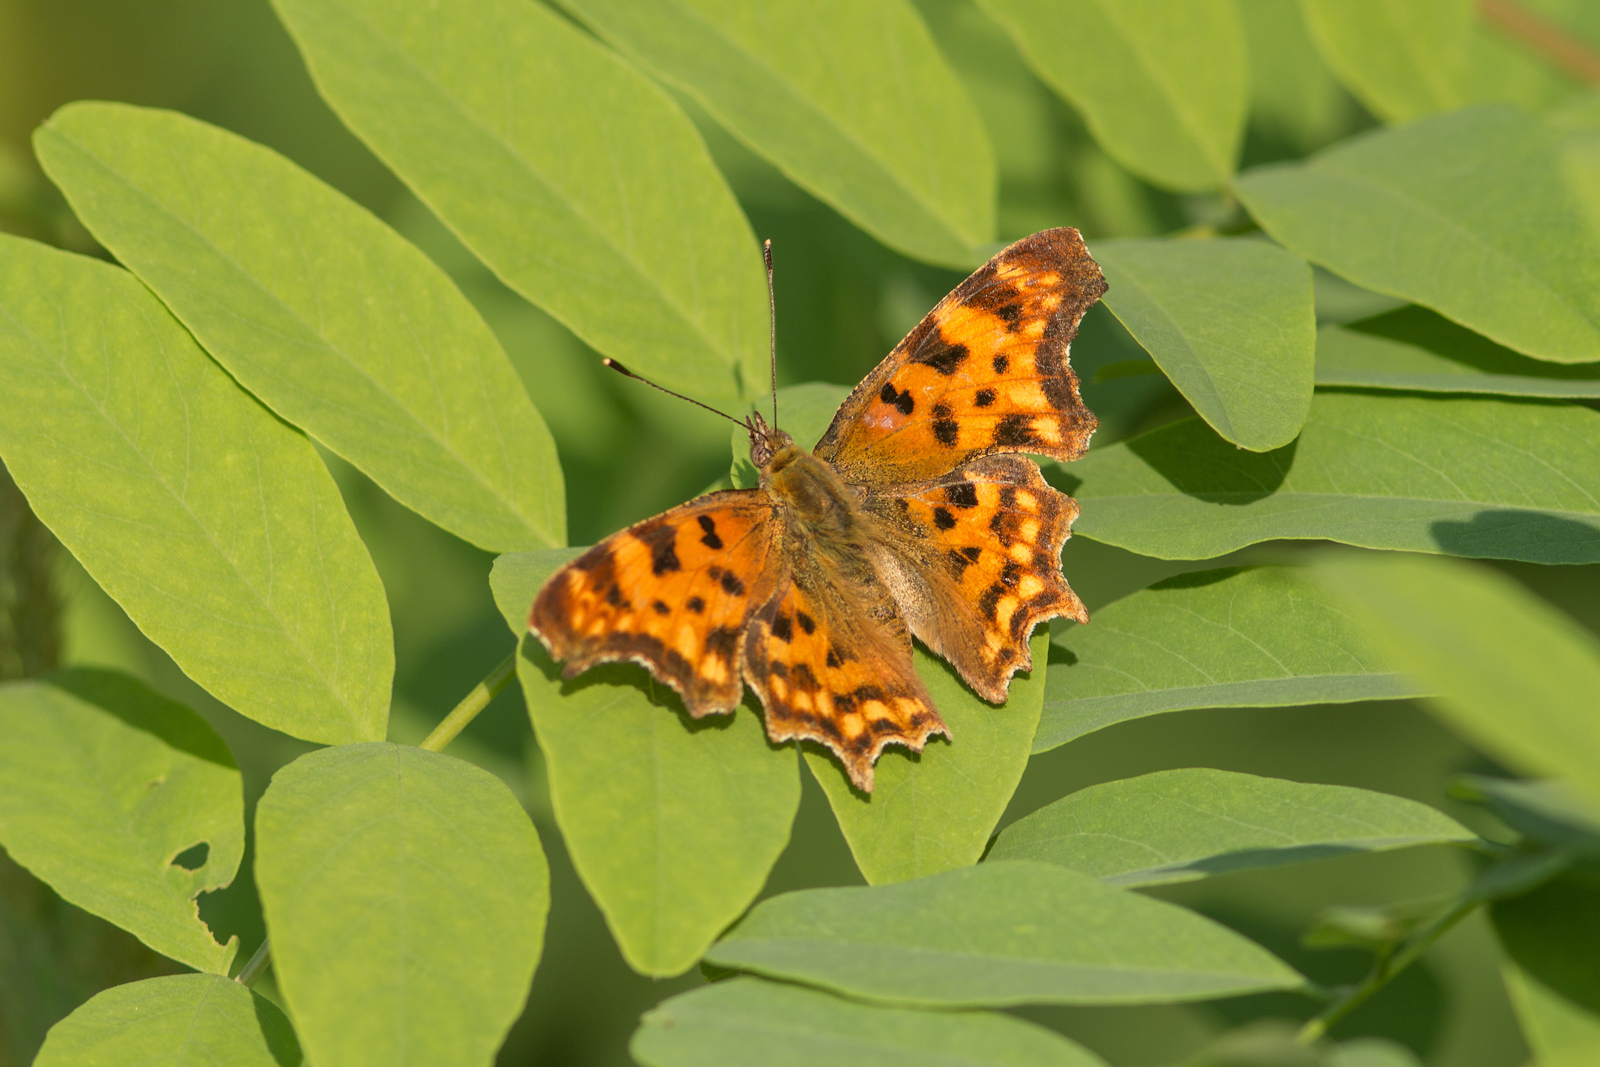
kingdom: Animalia
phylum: Arthropoda
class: Insecta
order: Lepidoptera
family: Nymphalidae
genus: Polygonia
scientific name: Polygonia c-album
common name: Comma
